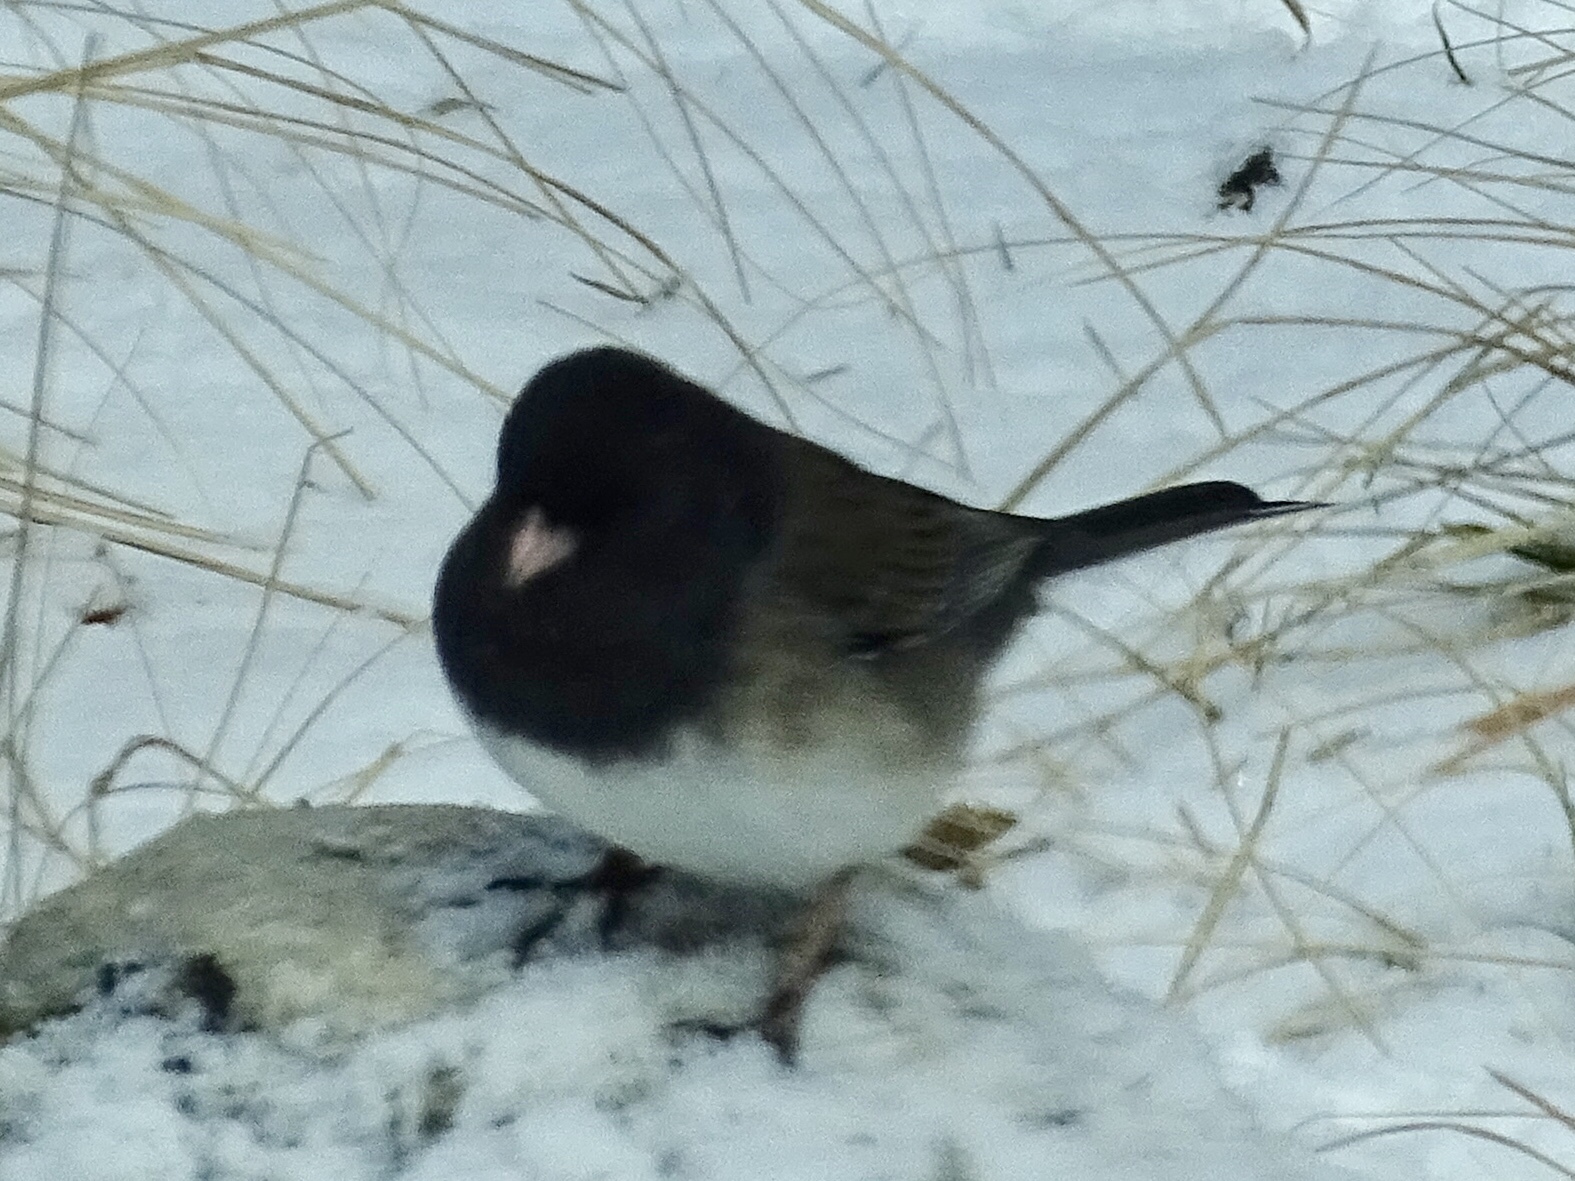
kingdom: Animalia
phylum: Chordata
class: Aves
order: Passeriformes
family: Passerellidae
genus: Junco
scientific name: Junco hyemalis
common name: Dark-eyed junco
